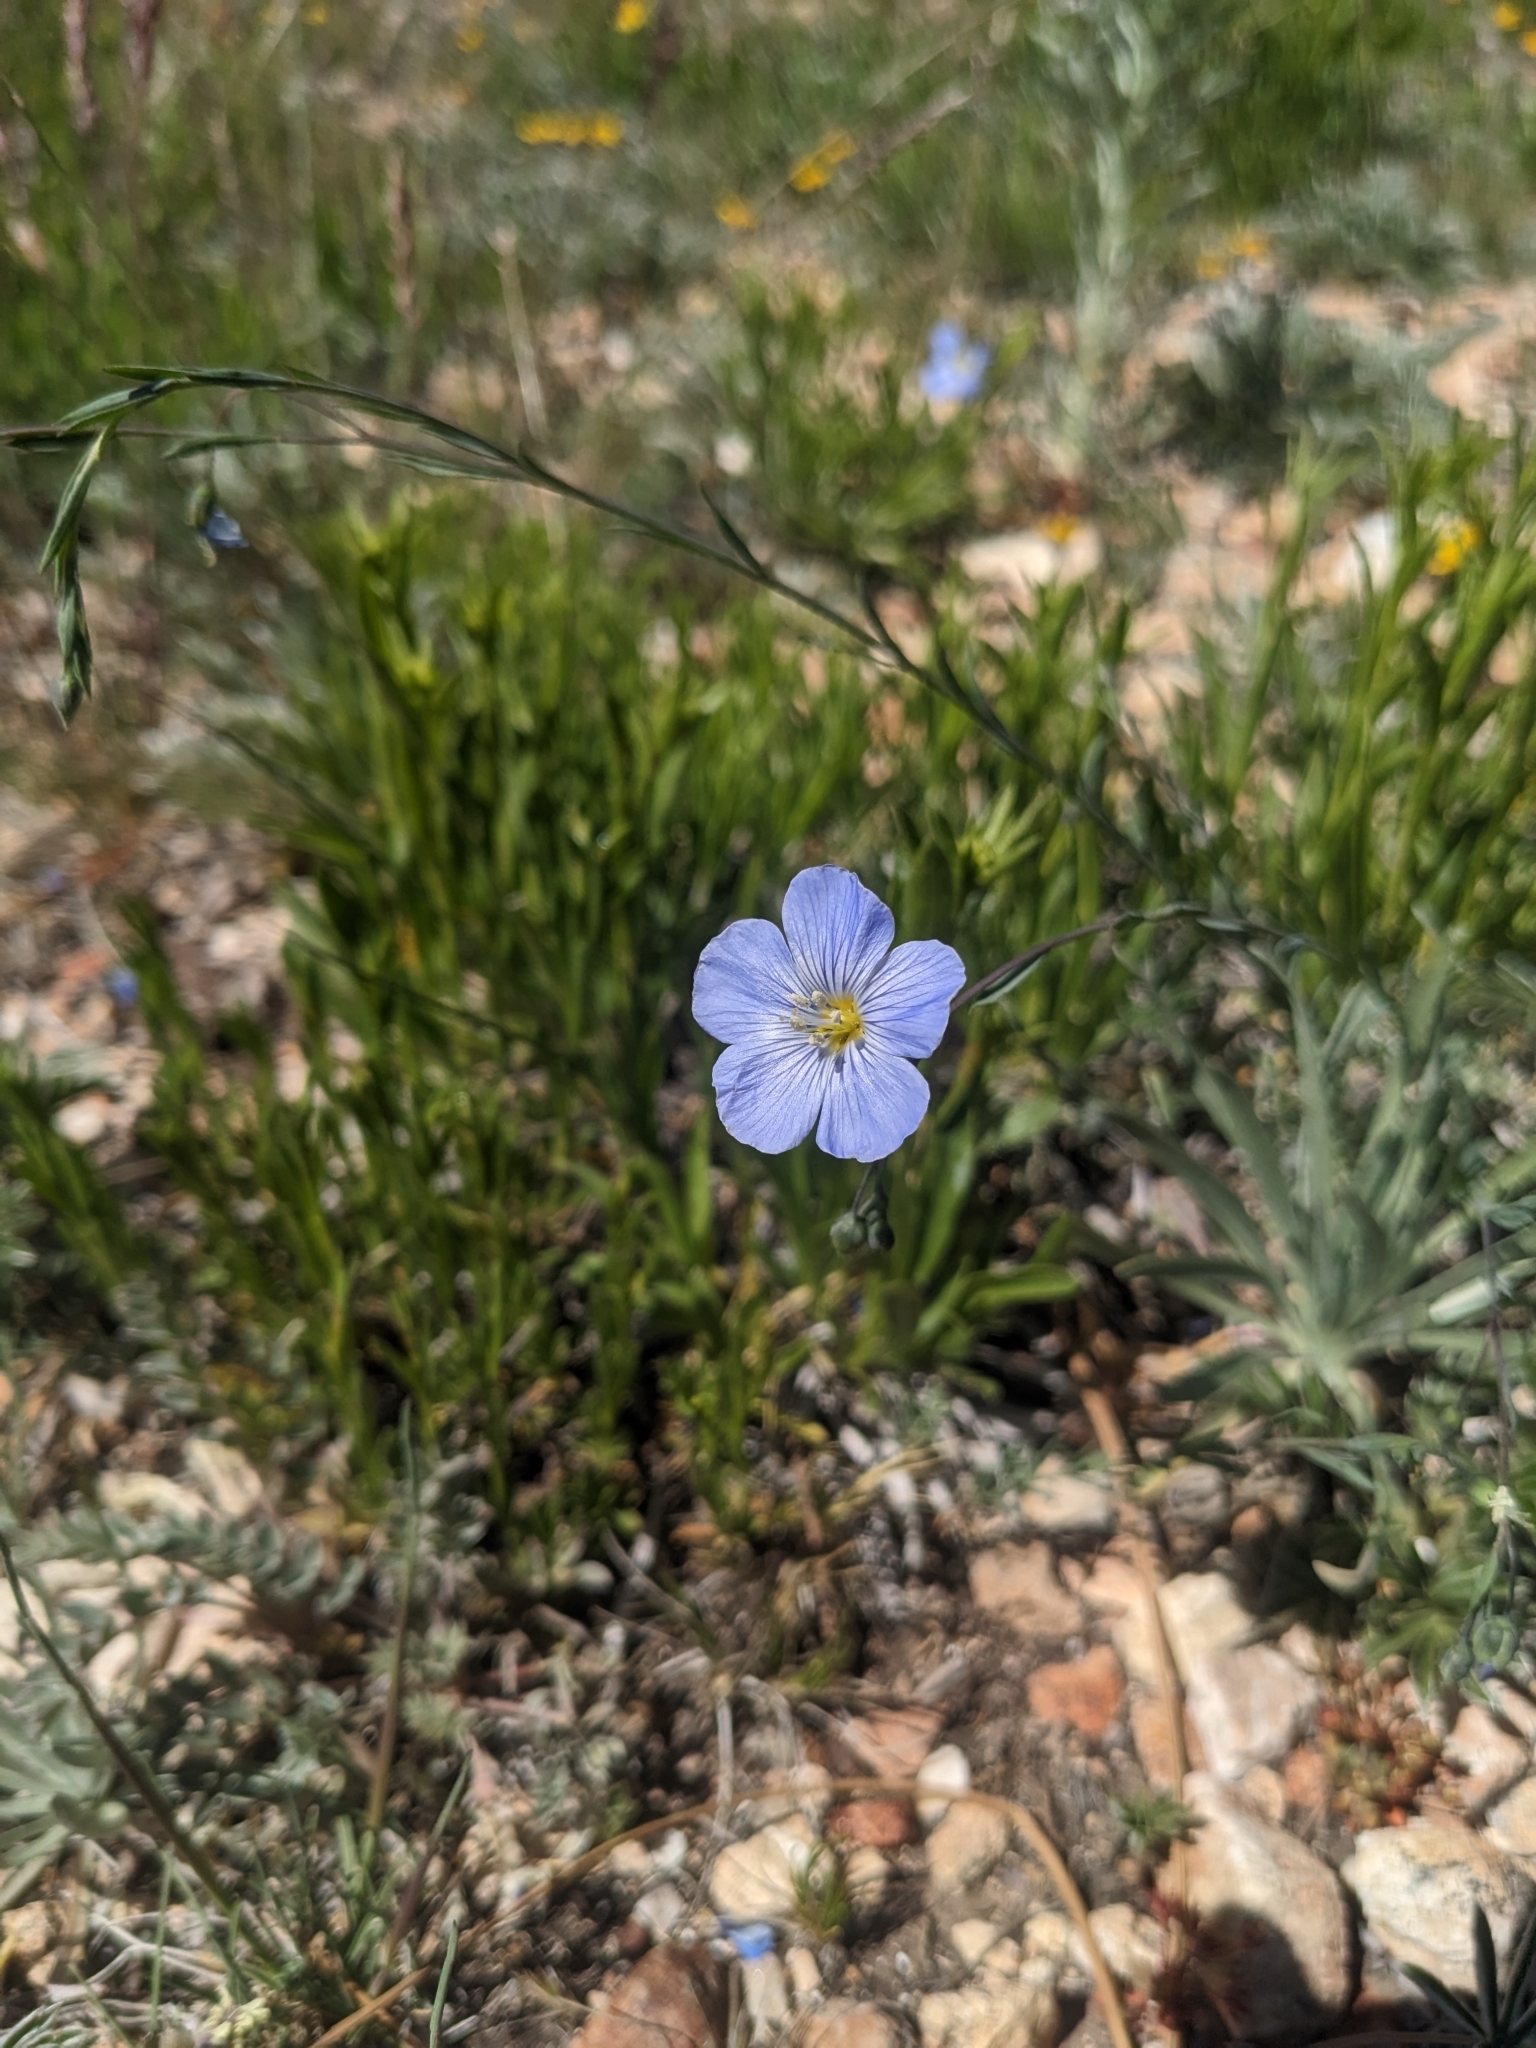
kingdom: Plantae
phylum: Tracheophyta
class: Magnoliopsida
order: Malpighiales
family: Linaceae
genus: Linum
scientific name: Linum lewisii
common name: Prairie flax
